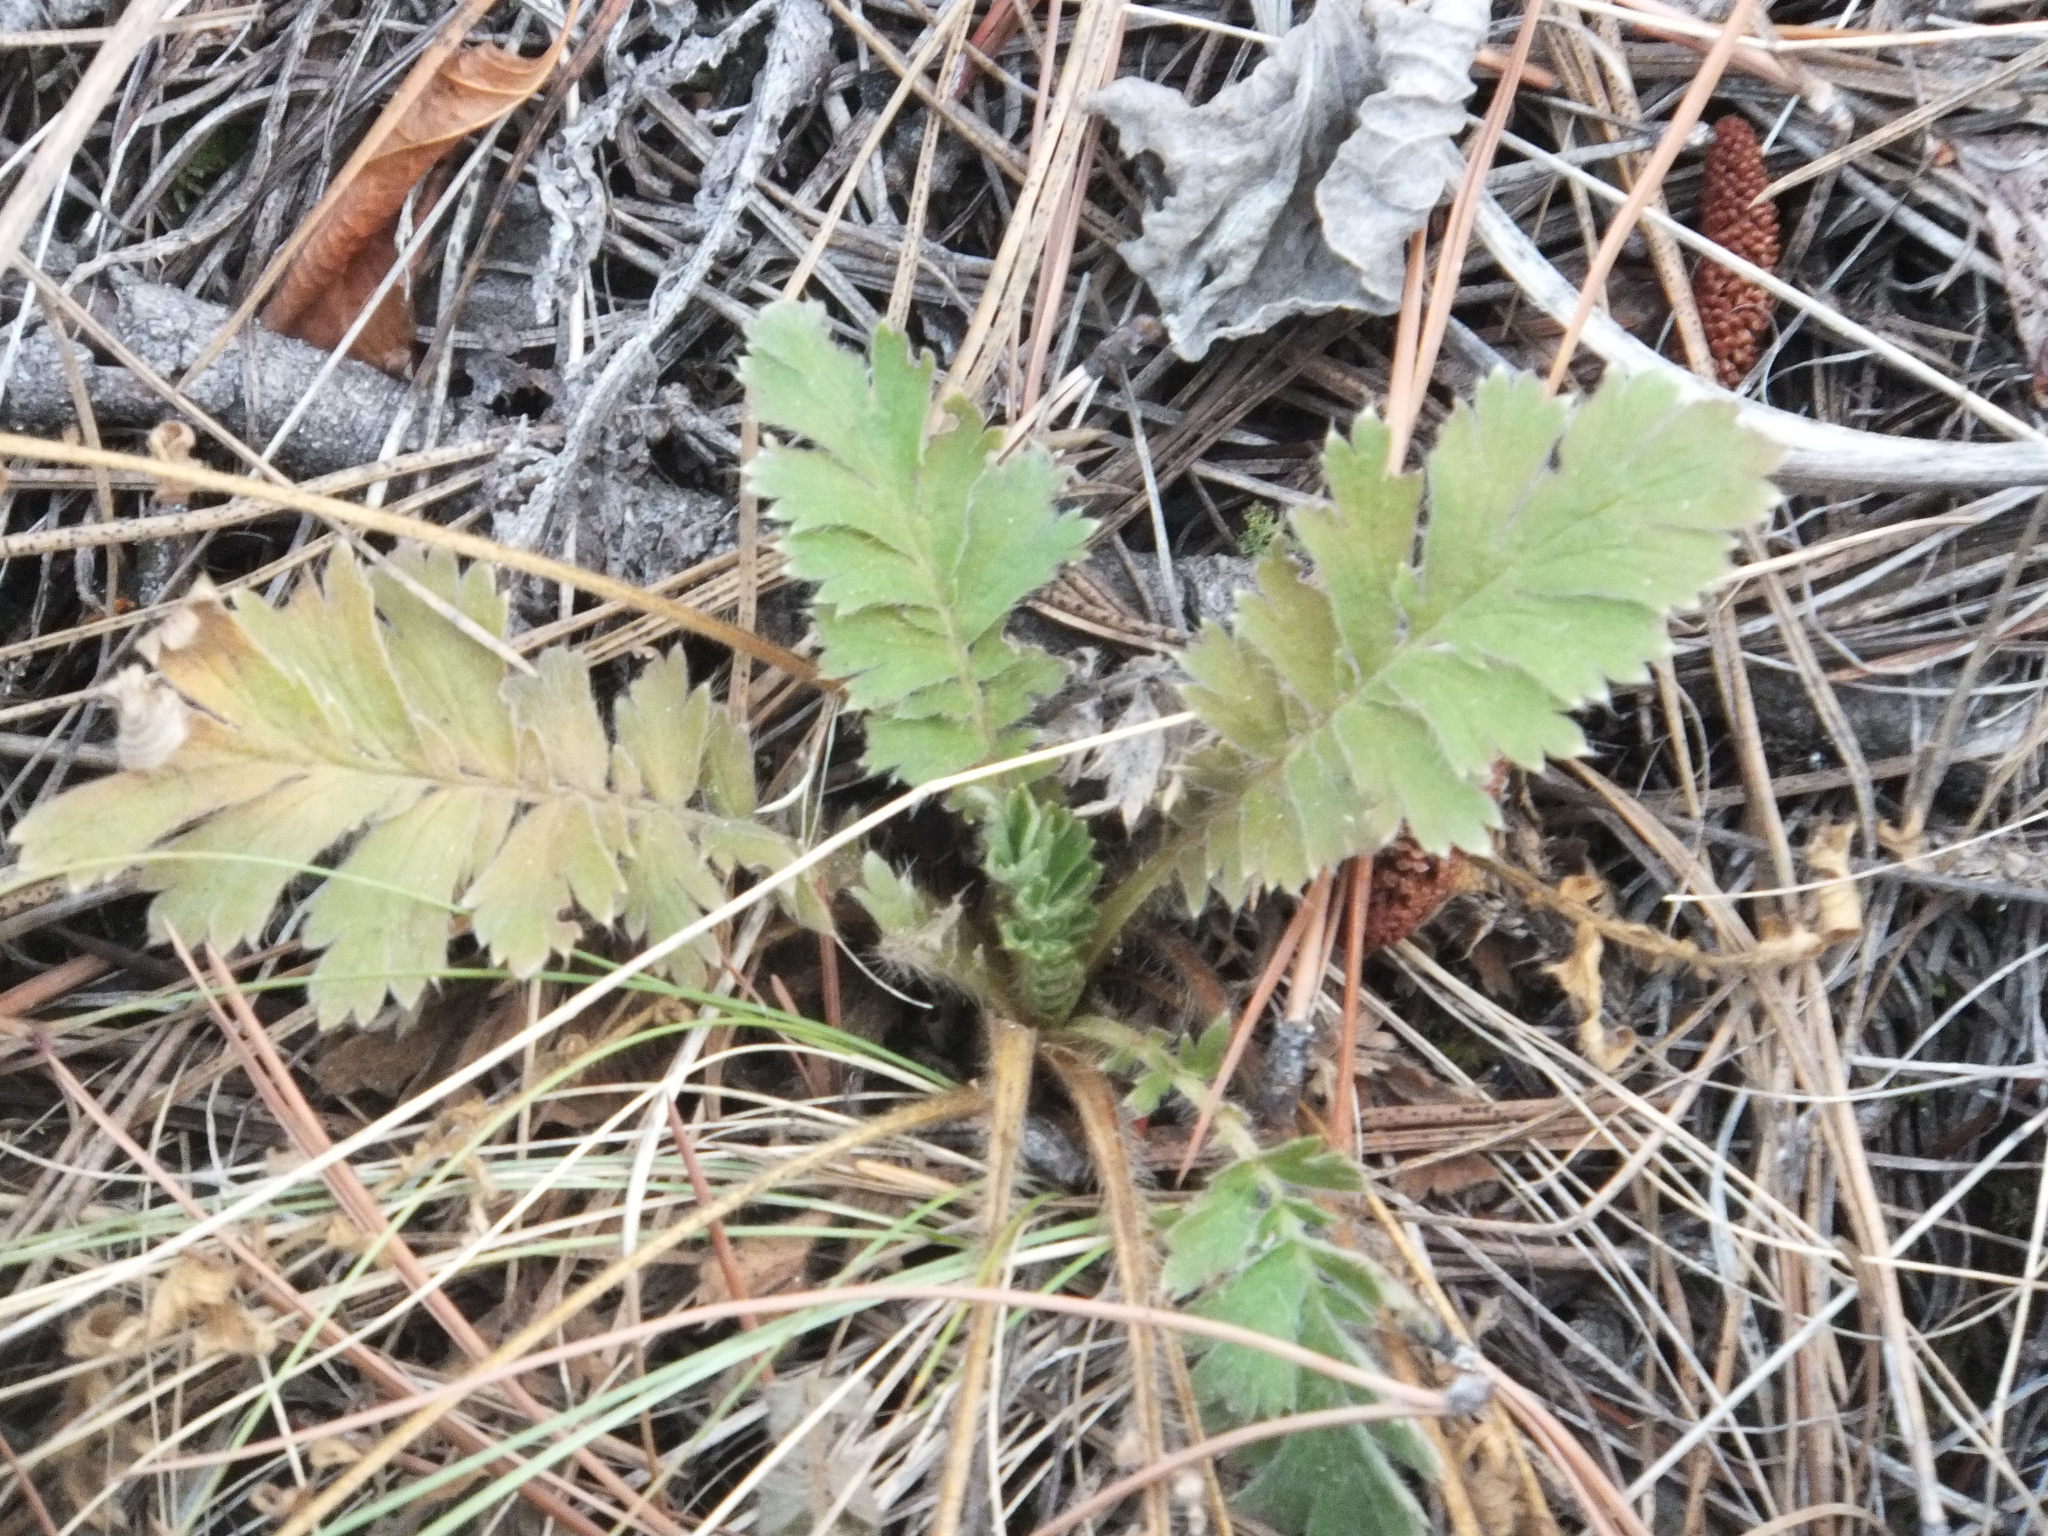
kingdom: Plantae
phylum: Tracheophyta
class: Magnoliopsida
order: Rosales
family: Rosaceae
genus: Geum
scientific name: Geum triflorum
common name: Old man's whiskers
